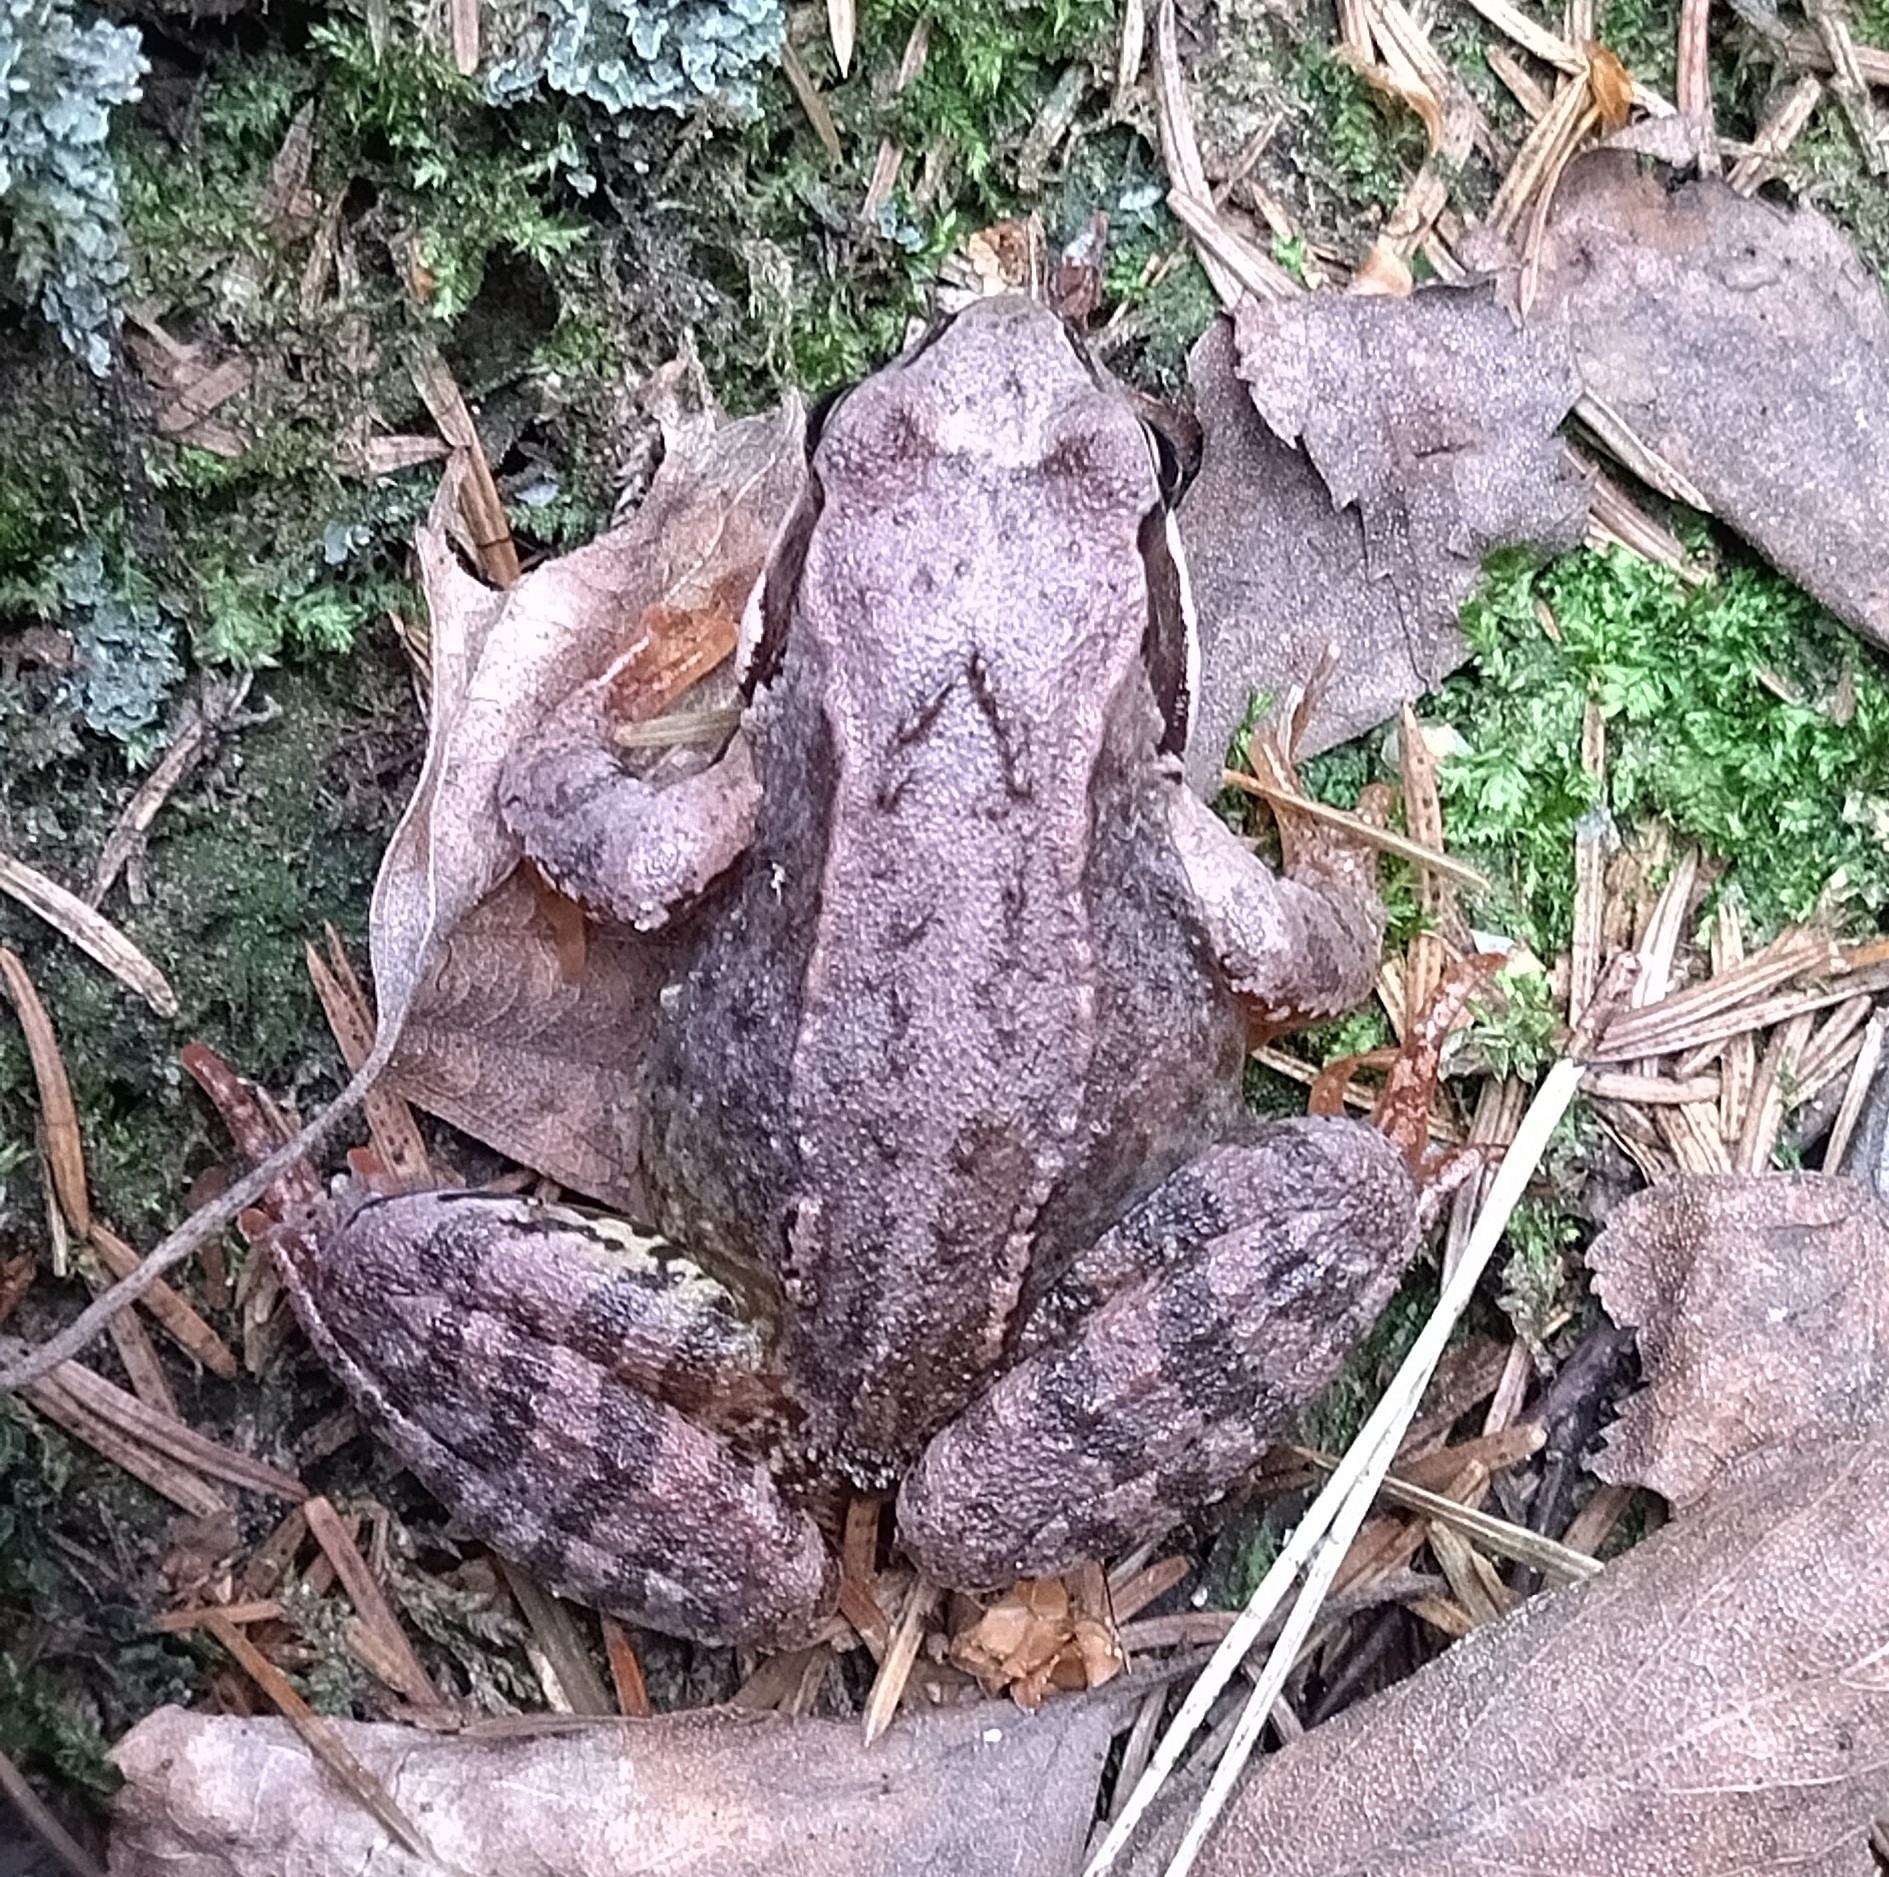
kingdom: Animalia
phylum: Chordata
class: Amphibia
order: Anura
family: Ranidae
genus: Rana
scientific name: Rana temporaria
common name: Common frog
